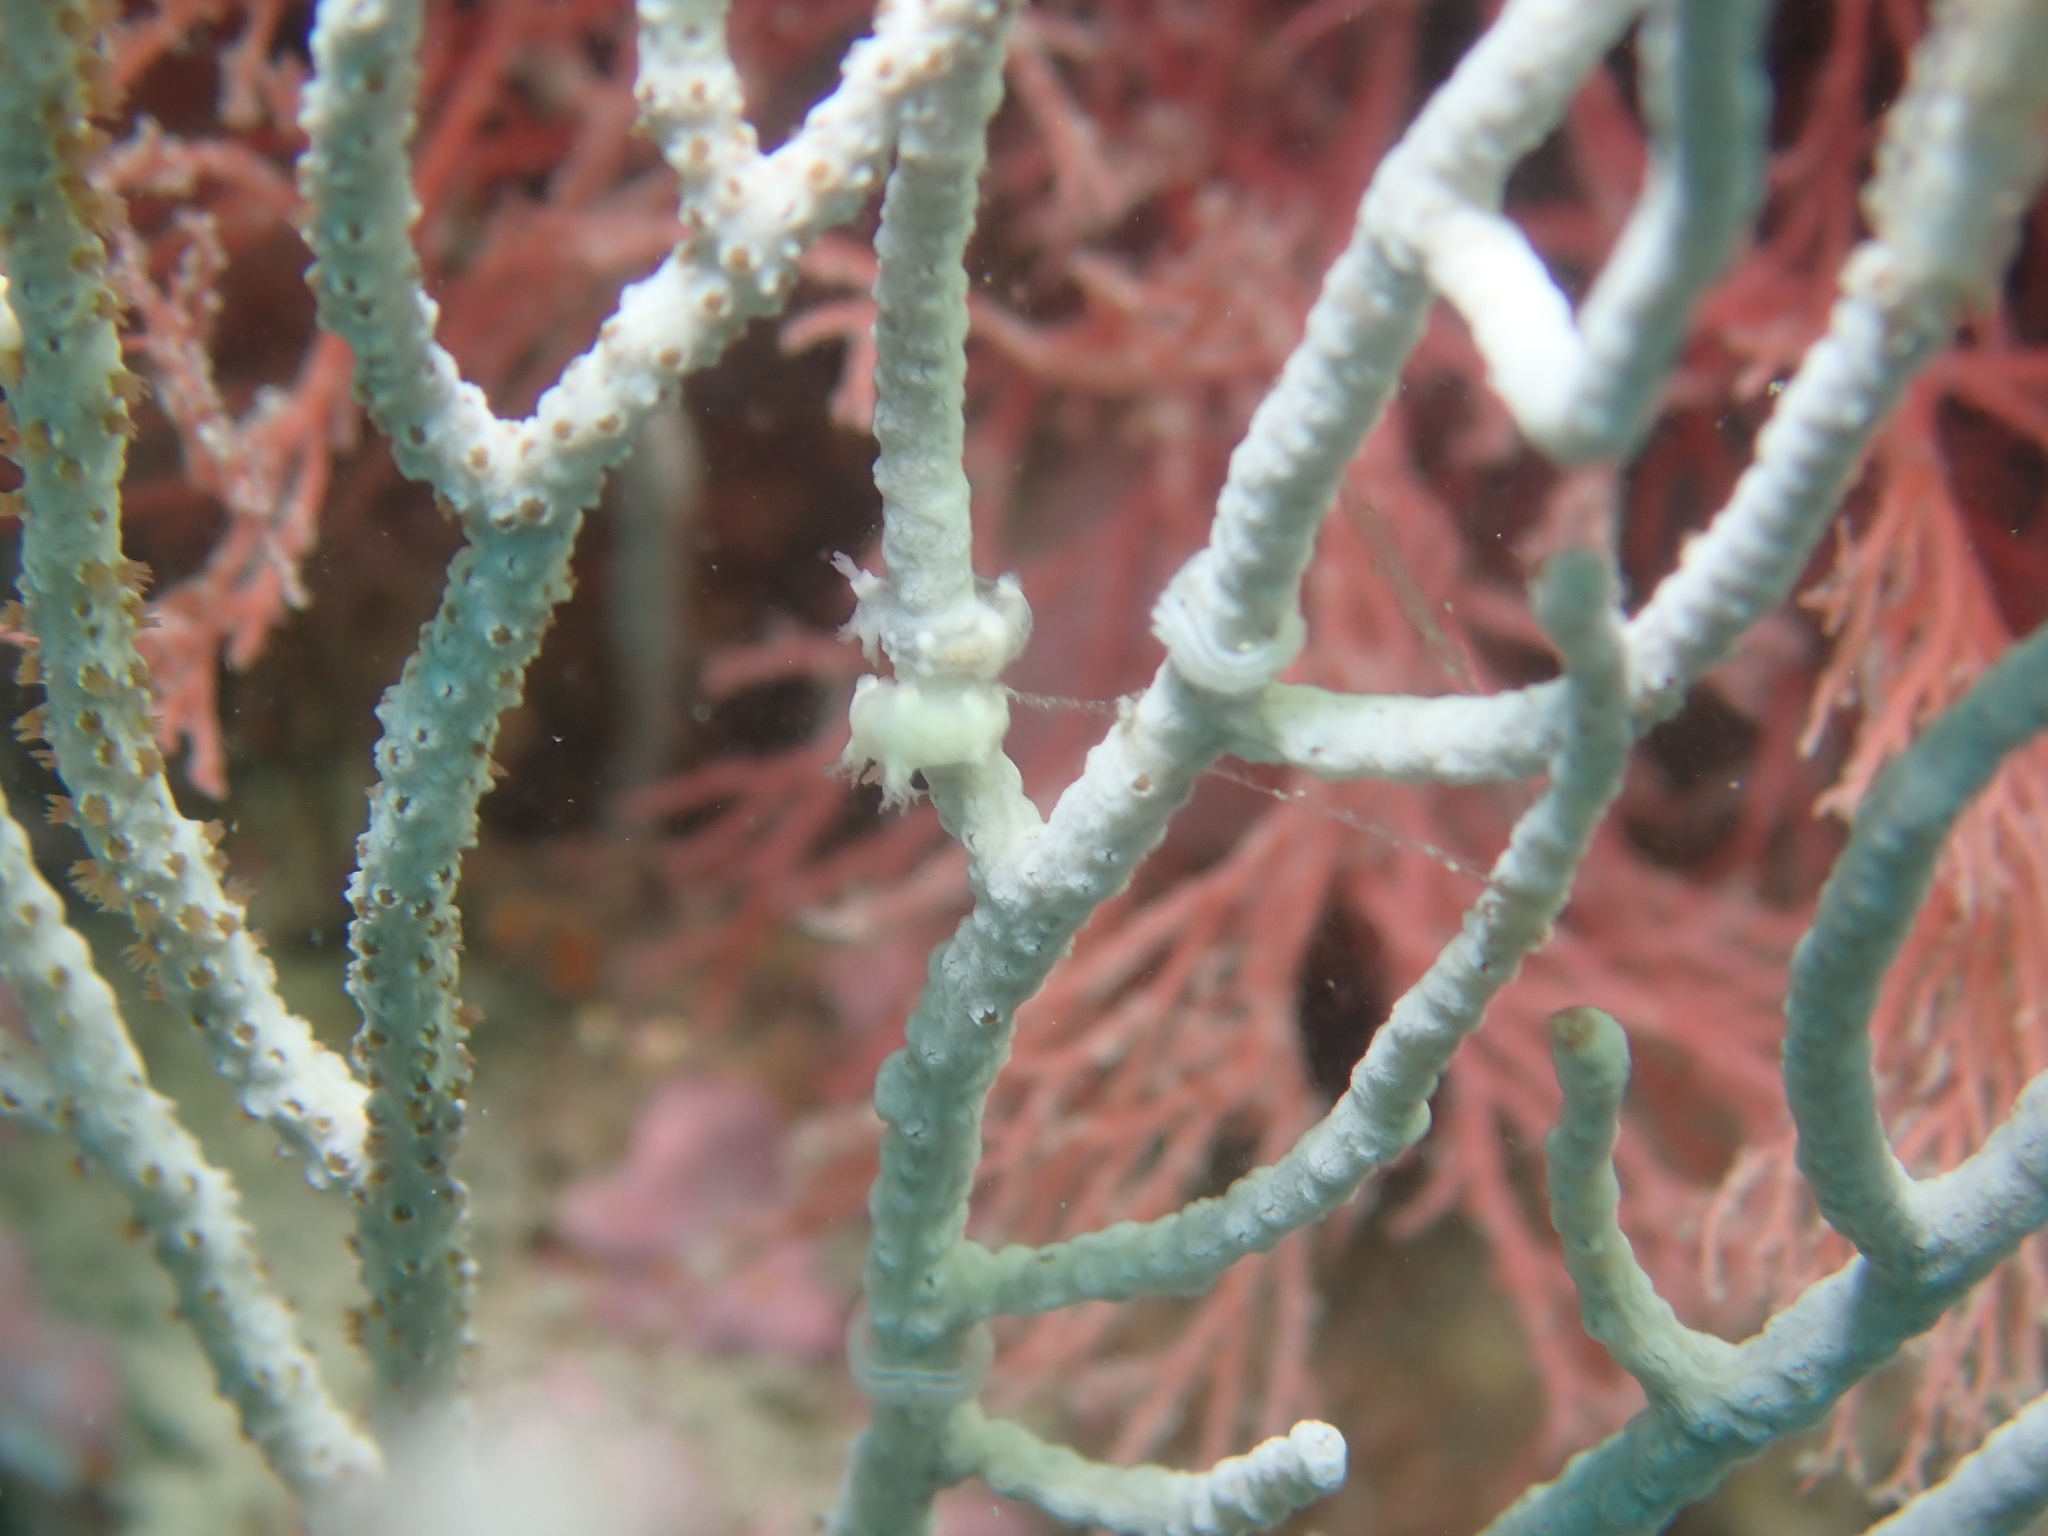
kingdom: Animalia
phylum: Mollusca
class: Gastropoda
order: Nudibranchia
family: Tritoniidae
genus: Duvaucelia
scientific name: Duvaucelia odhneri
